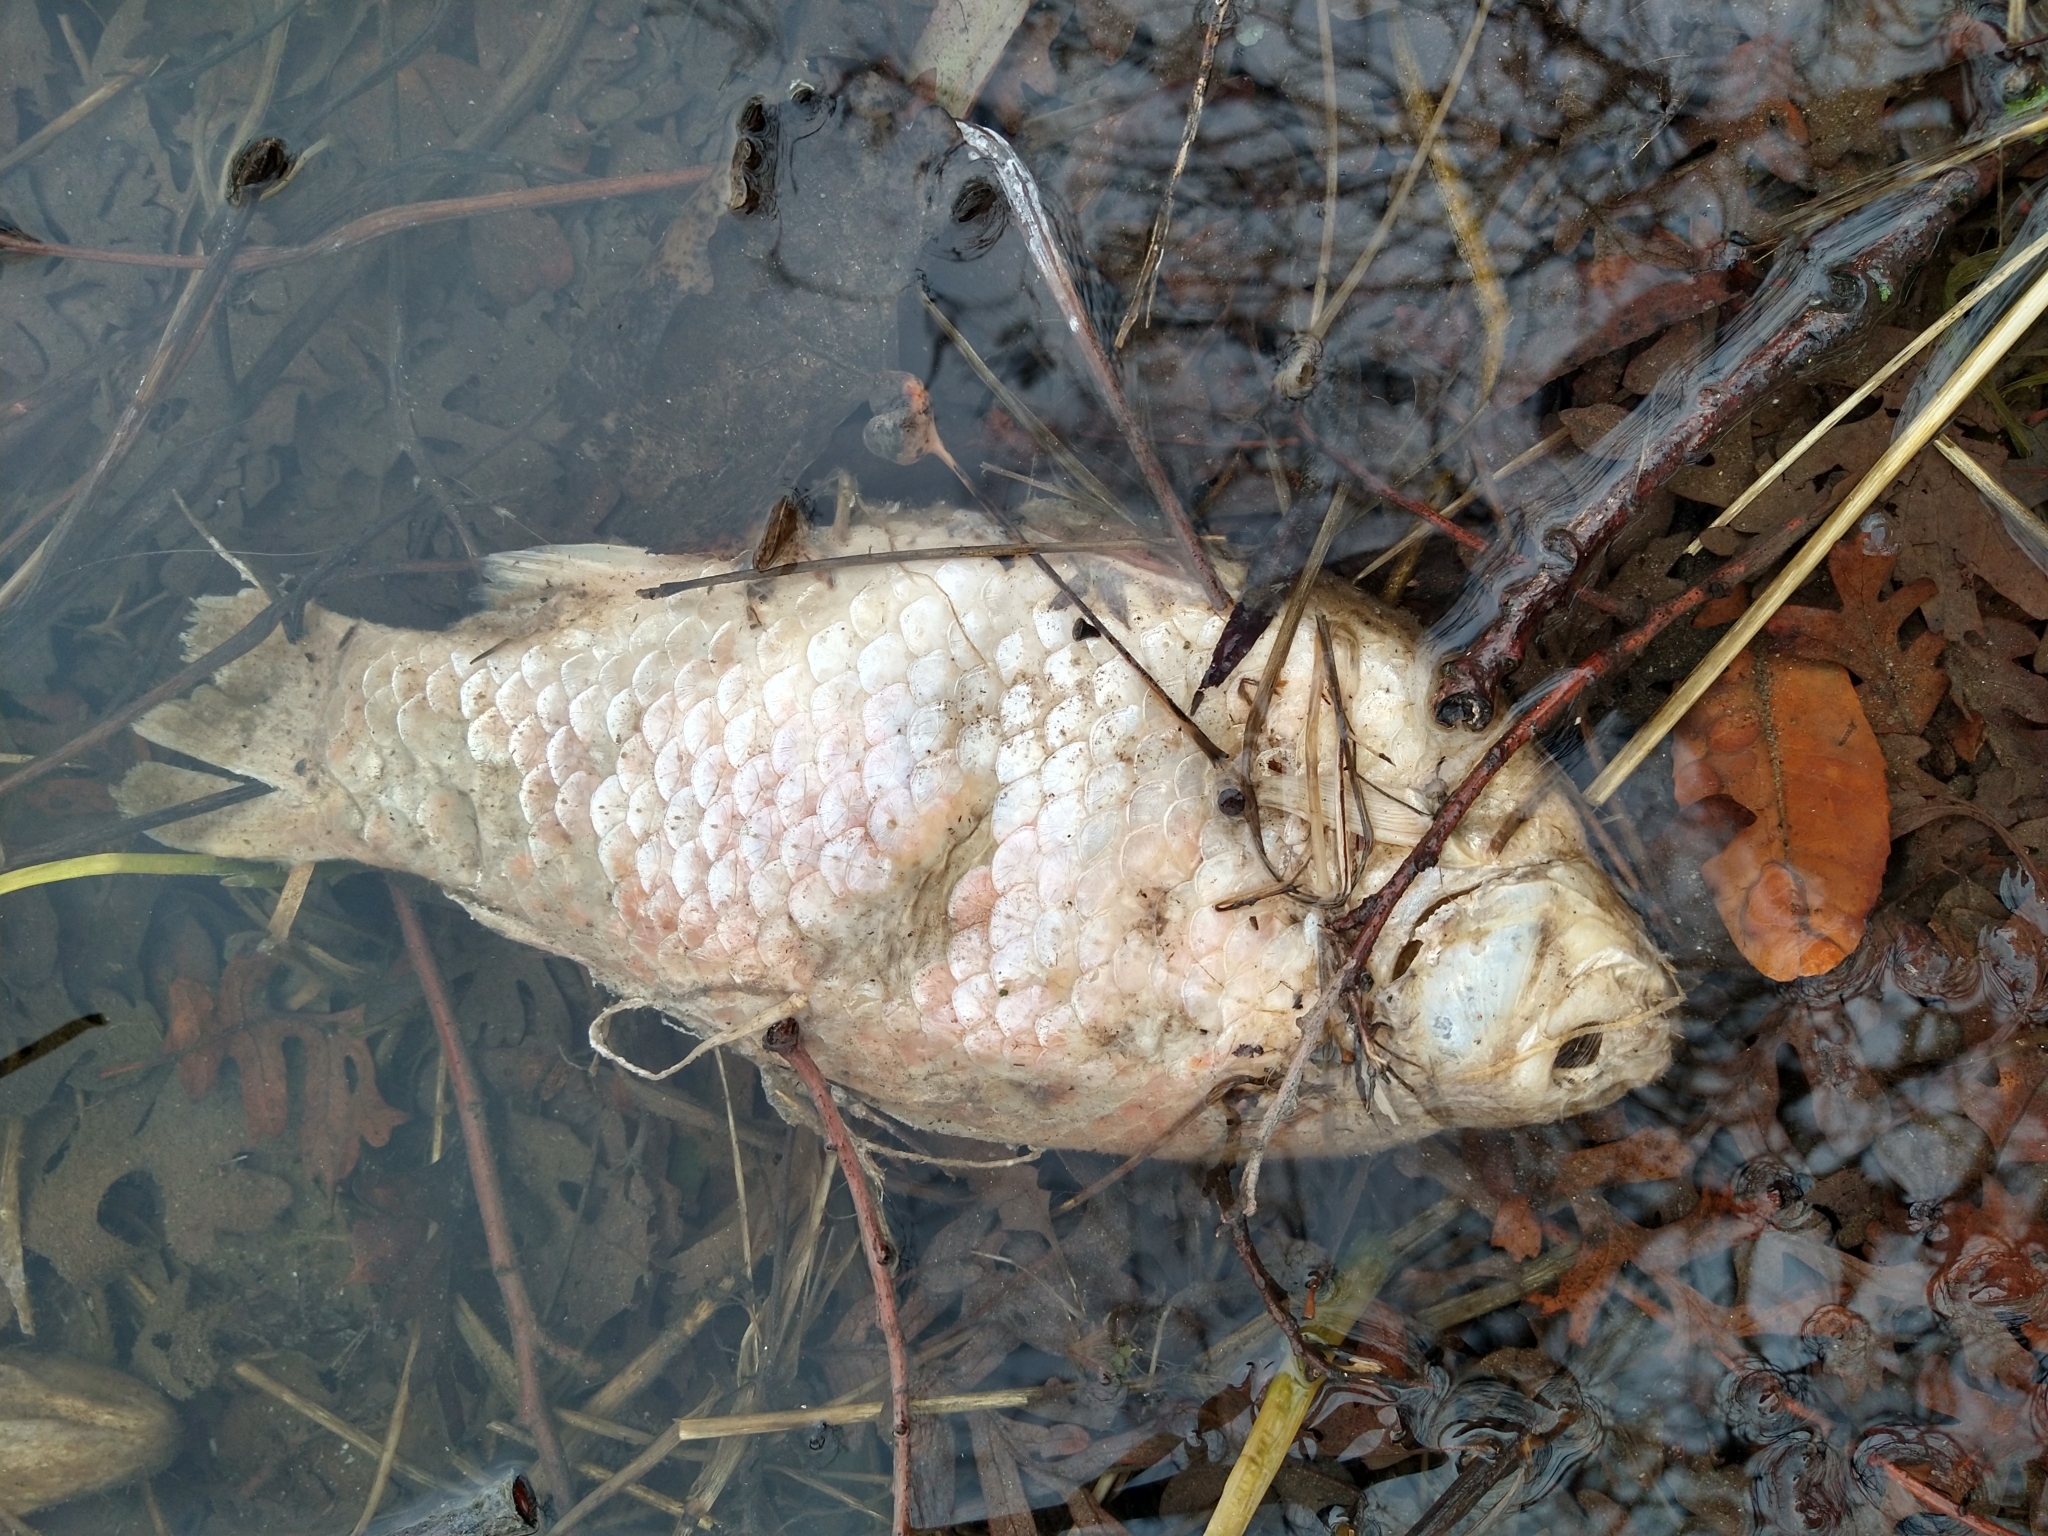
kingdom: Animalia
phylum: Chordata
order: Cypriniformes
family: Cyprinidae
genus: Carassius
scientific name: Carassius auratus
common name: Goldfish
